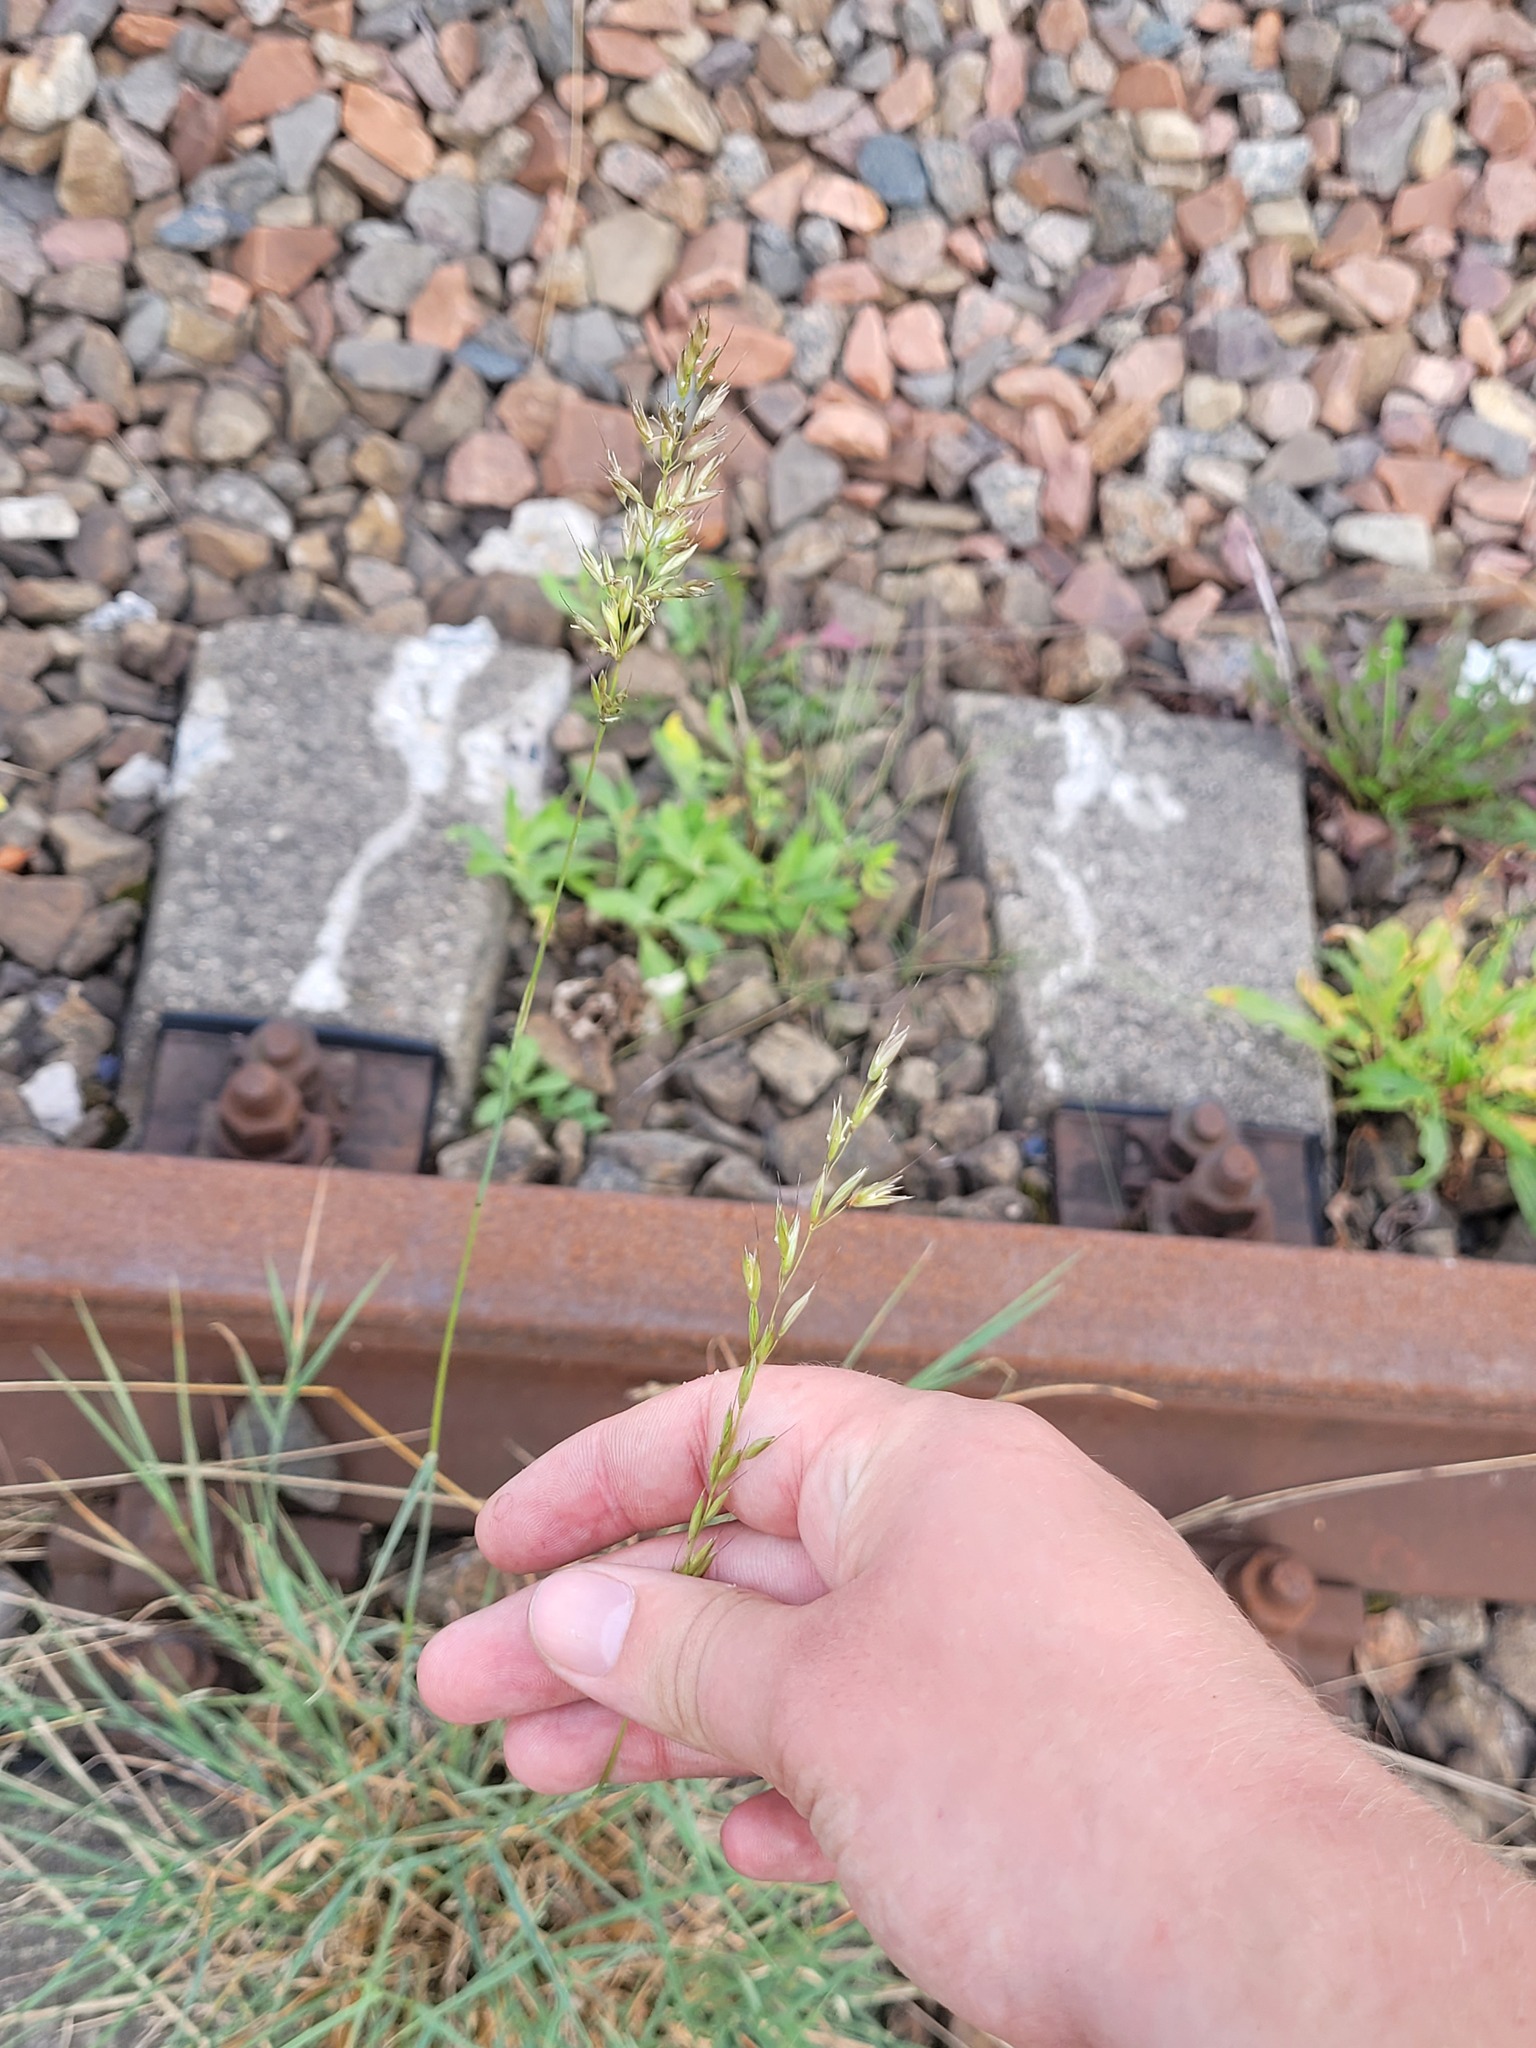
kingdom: Plantae
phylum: Tracheophyta
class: Liliopsida
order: Poales
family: Poaceae
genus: Arrhenatherum
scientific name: Arrhenatherum elatius
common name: Tall oatgrass
